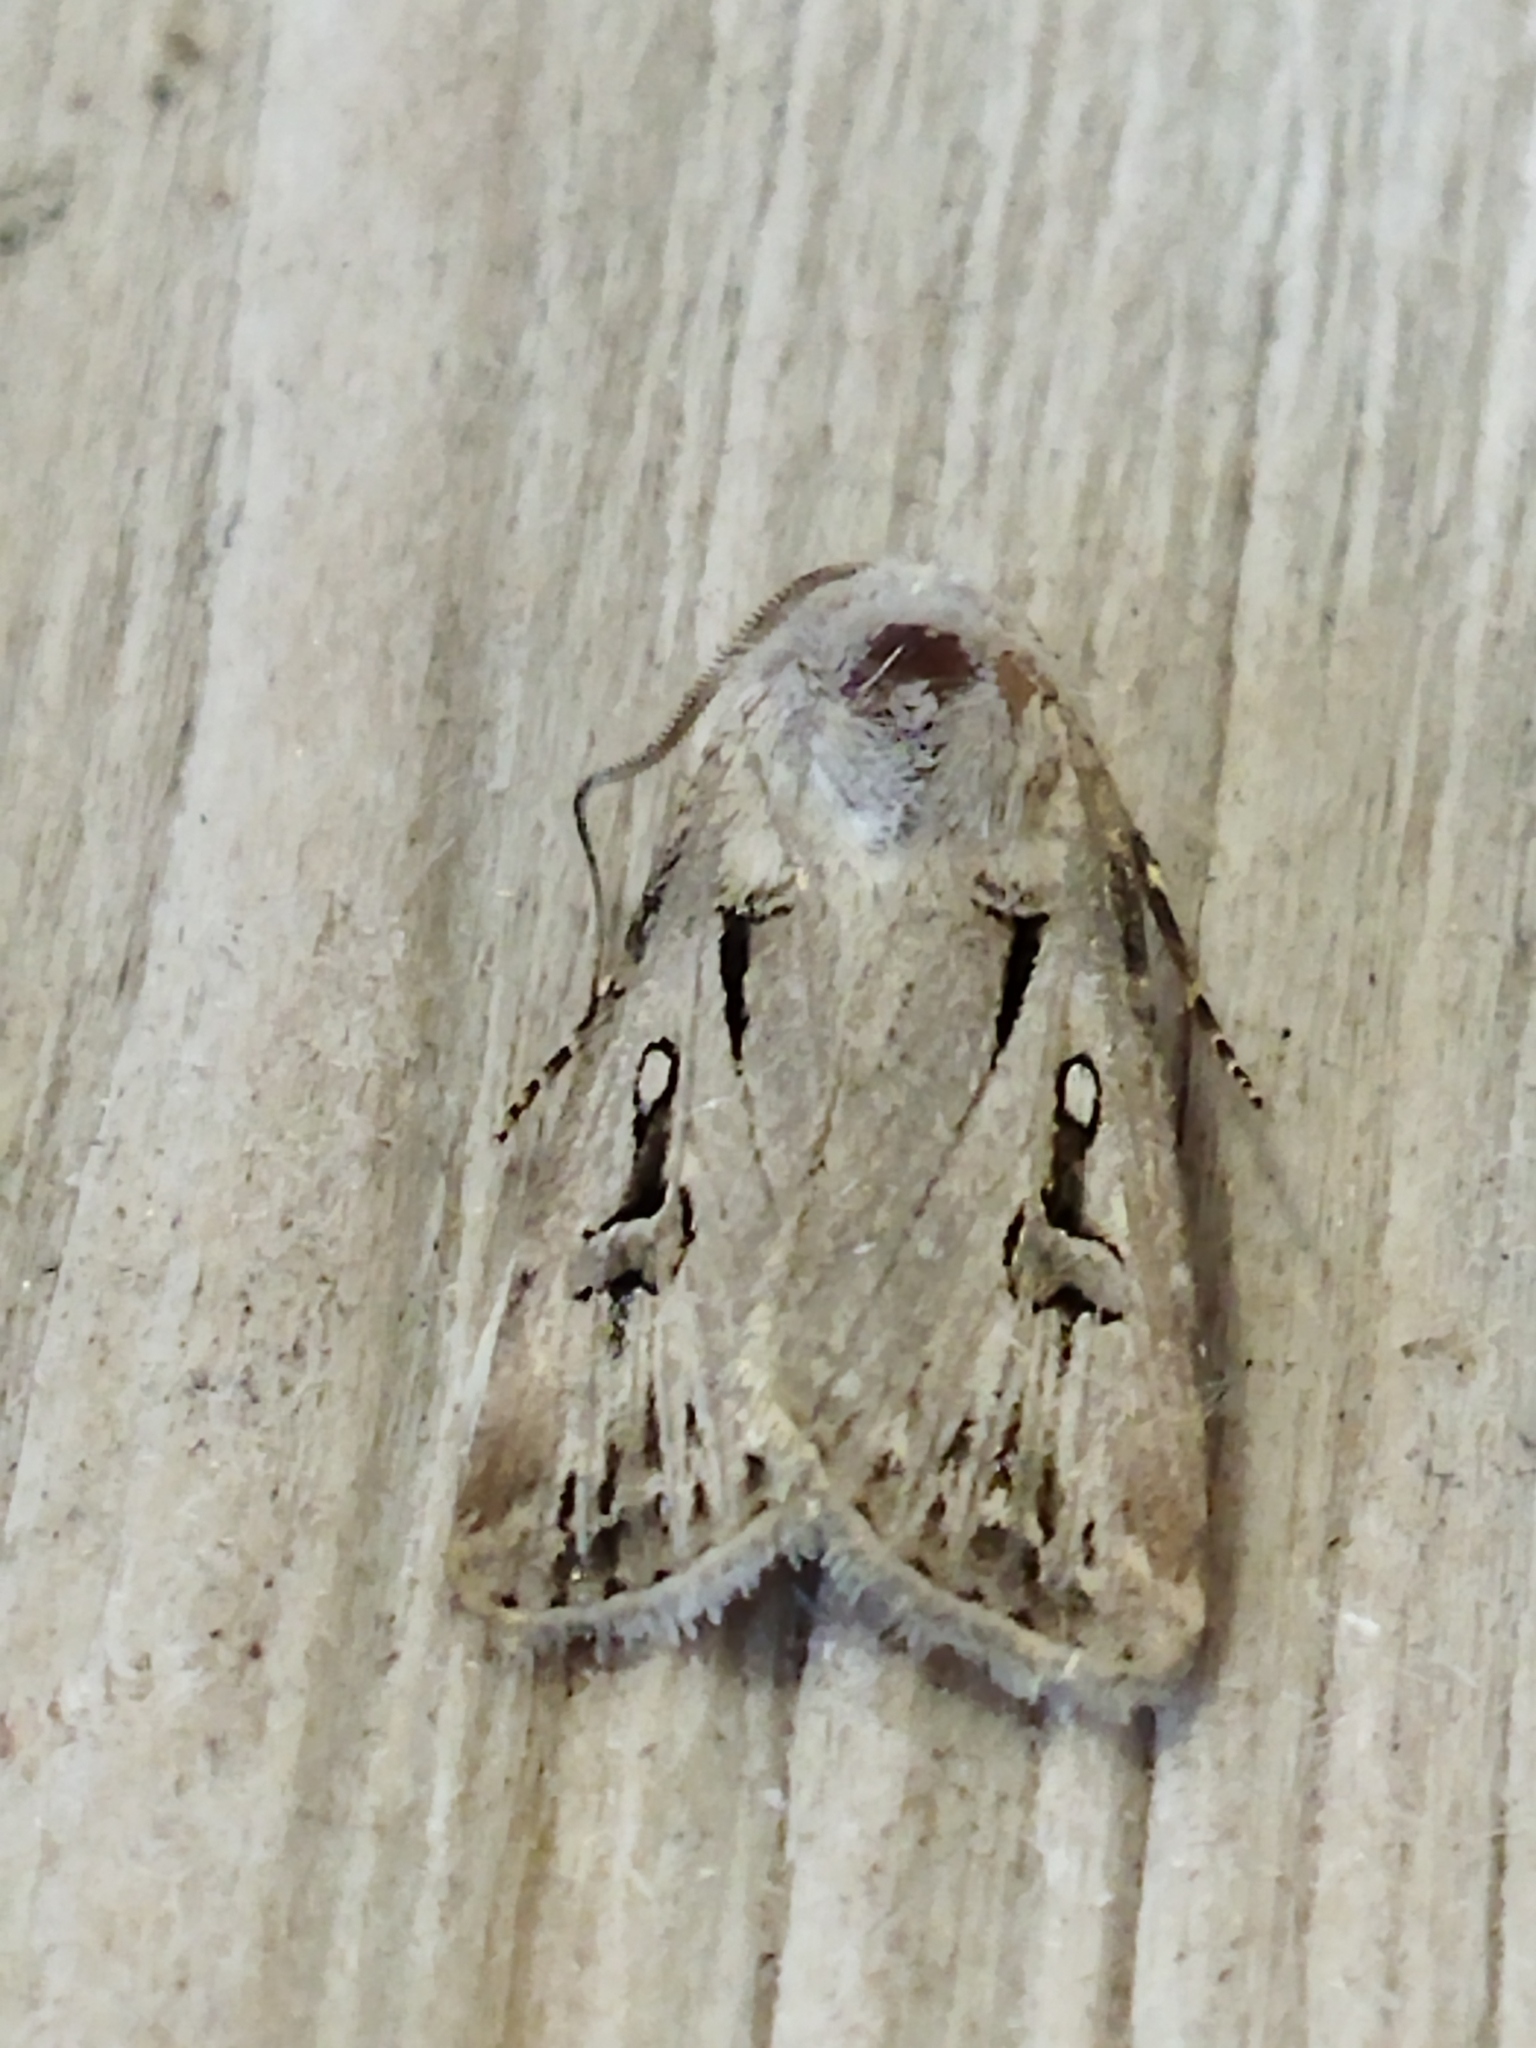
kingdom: Animalia
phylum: Arthropoda
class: Insecta
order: Lepidoptera
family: Noctuidae
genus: Agrotis
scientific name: Agrotis
